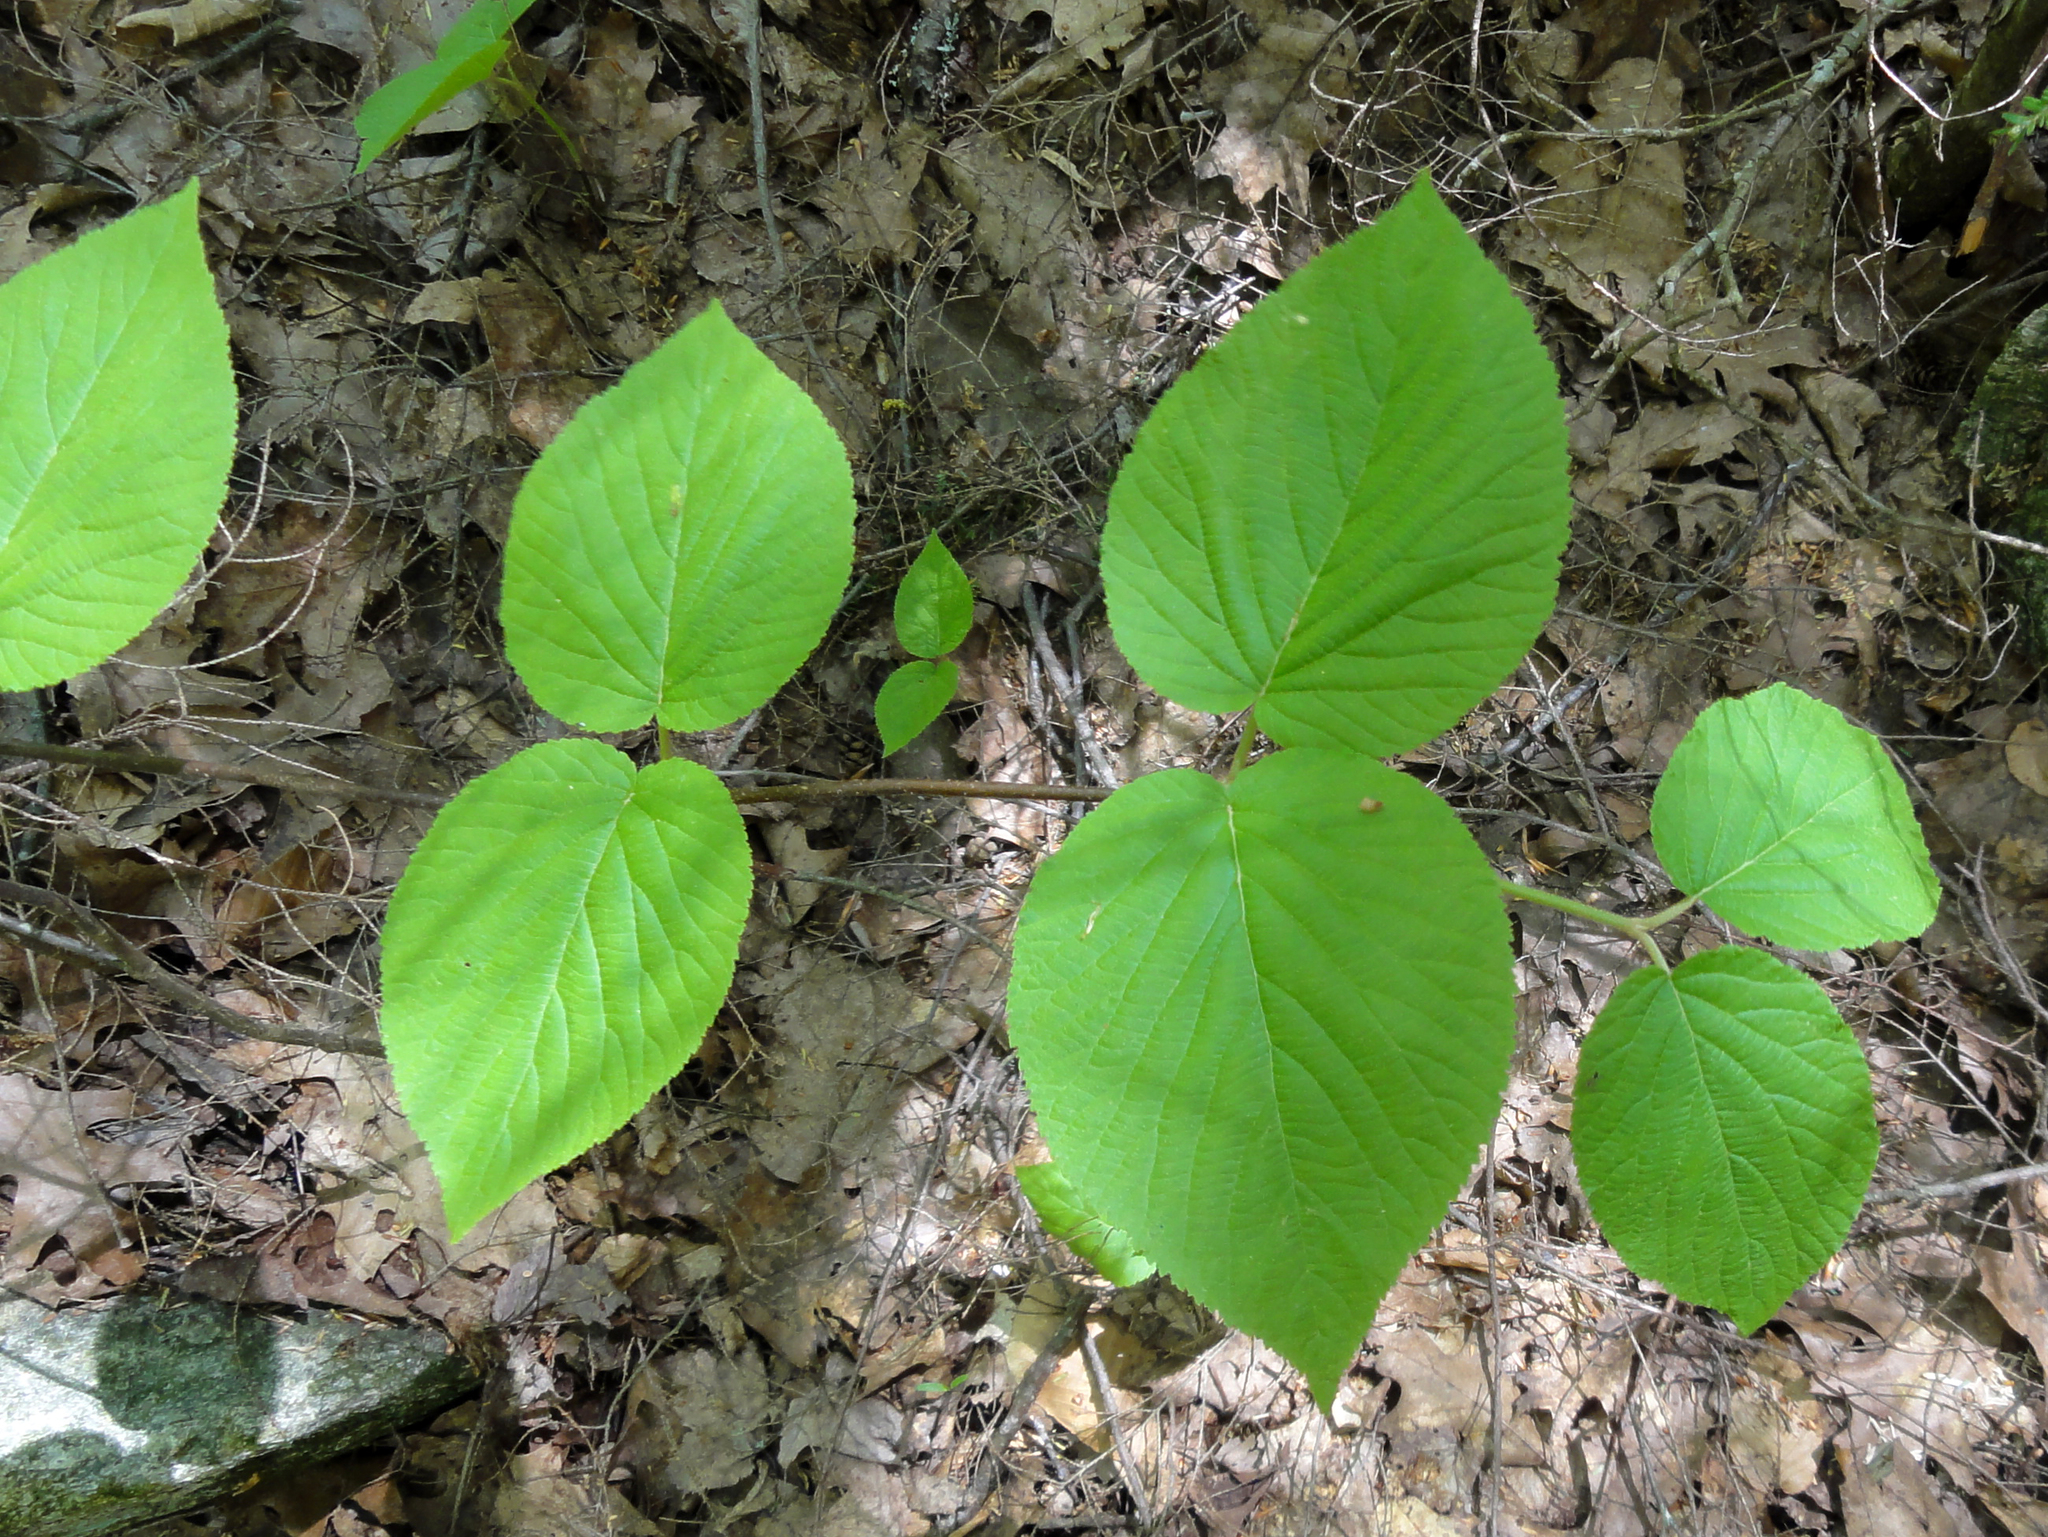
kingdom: Plantae
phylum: Tracheophyta
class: Magnoliopsida
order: Dipsacales
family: Viburnaceae
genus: Viburnum
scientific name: Viburnum lantanoides
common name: Hobblebush
